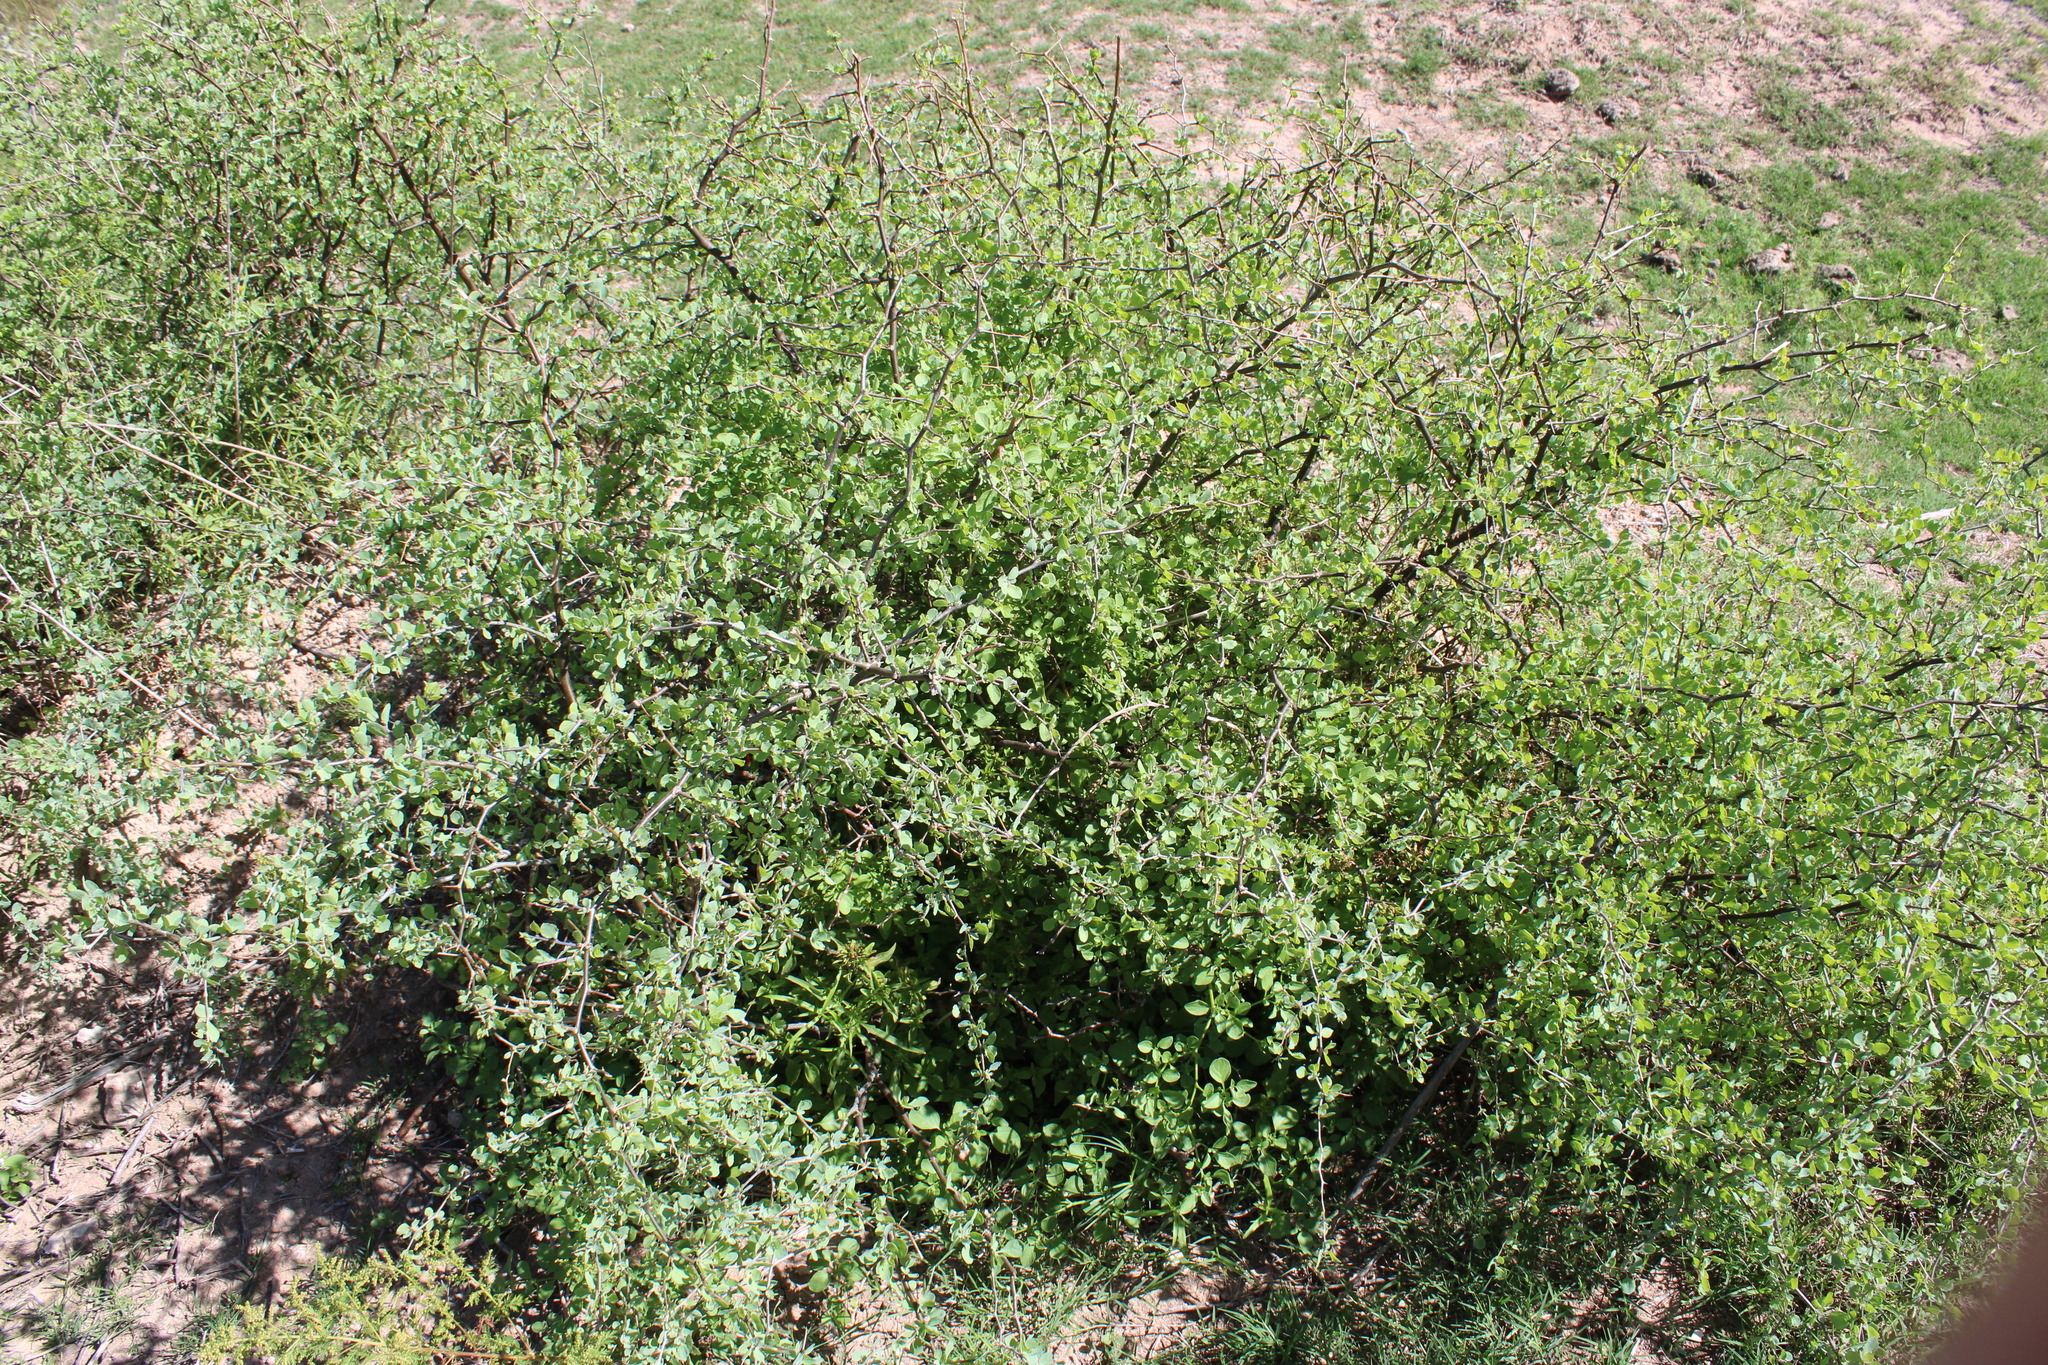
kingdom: Plantae
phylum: Tracheophyta
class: Magnoliopsida
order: Solanales
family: Solanaceae
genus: Lycium
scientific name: Lycium boerhaaviifolium
